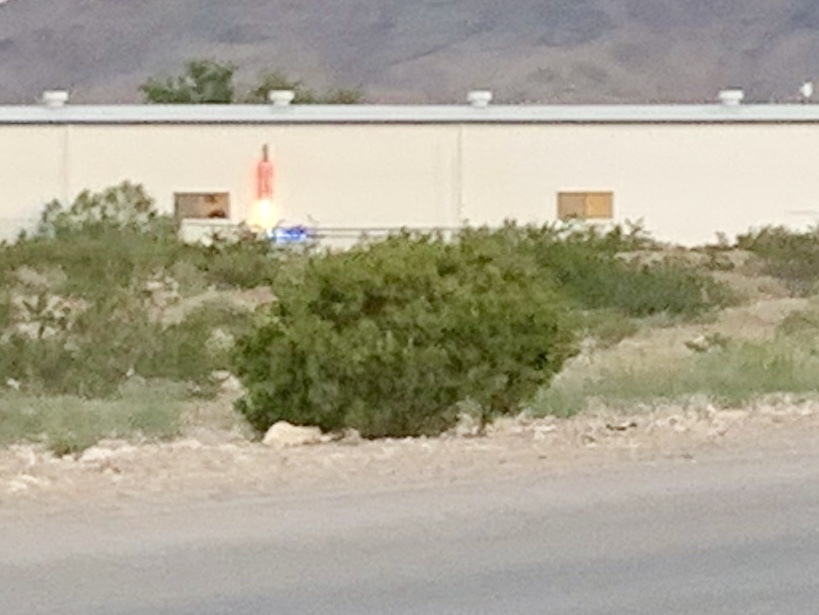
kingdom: Plantae
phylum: Tracheophyta
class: Magnoliopsida
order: Zygophyllales
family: Zygophyllaceae
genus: Larrea
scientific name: Larrea tridentata
